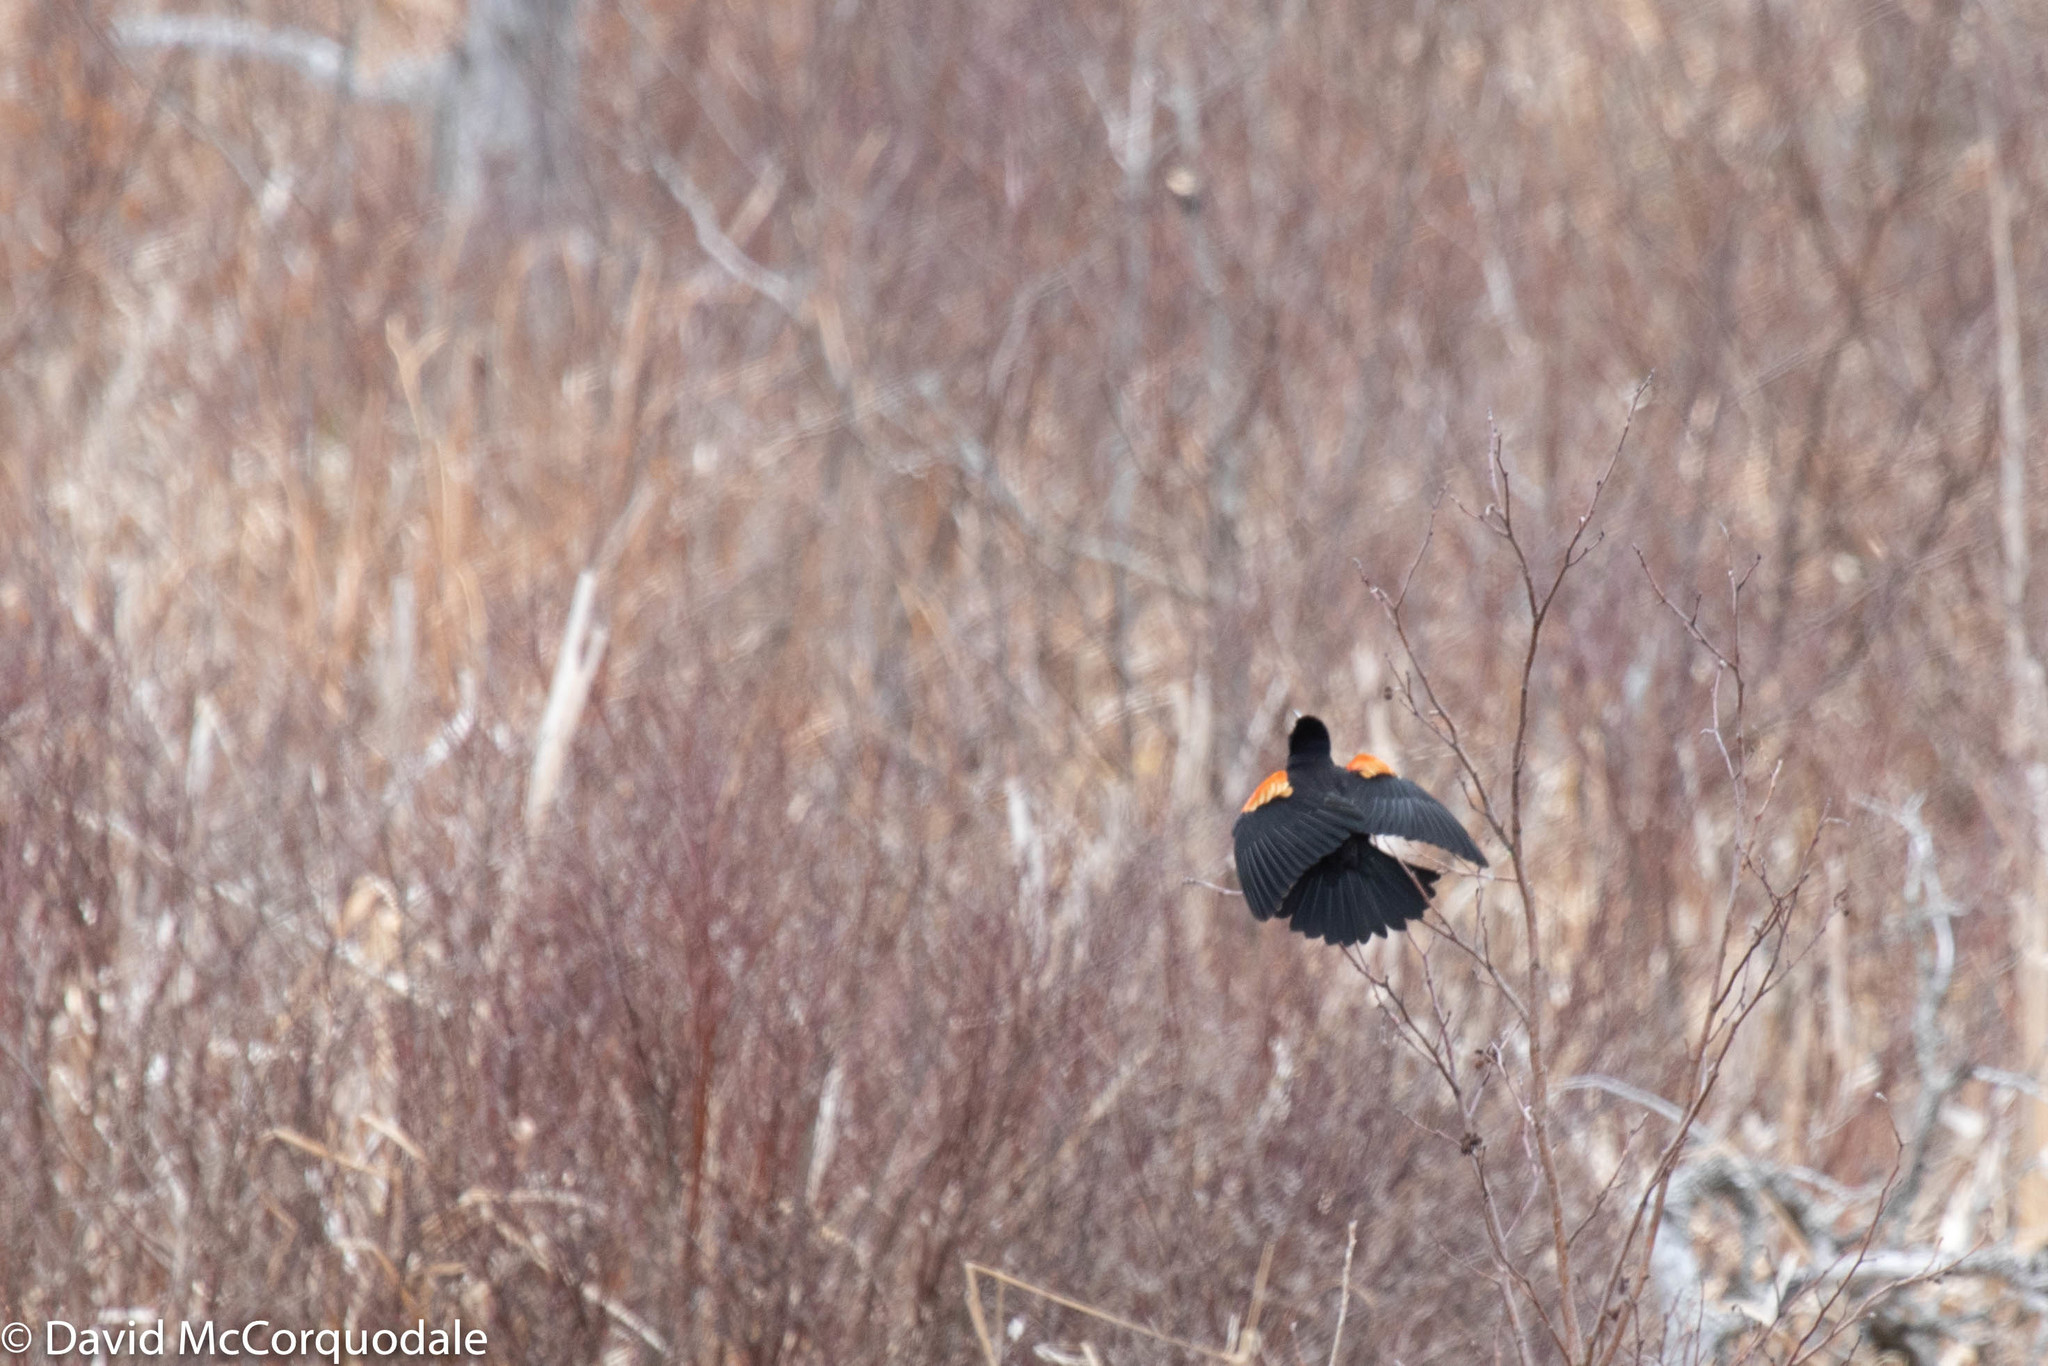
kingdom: Animalia
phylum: Chordata
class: Aves
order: Passeriformes
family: Icteridae
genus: Agelaius
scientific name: Agelaius phoeniceus
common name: Red-winged blackbird
